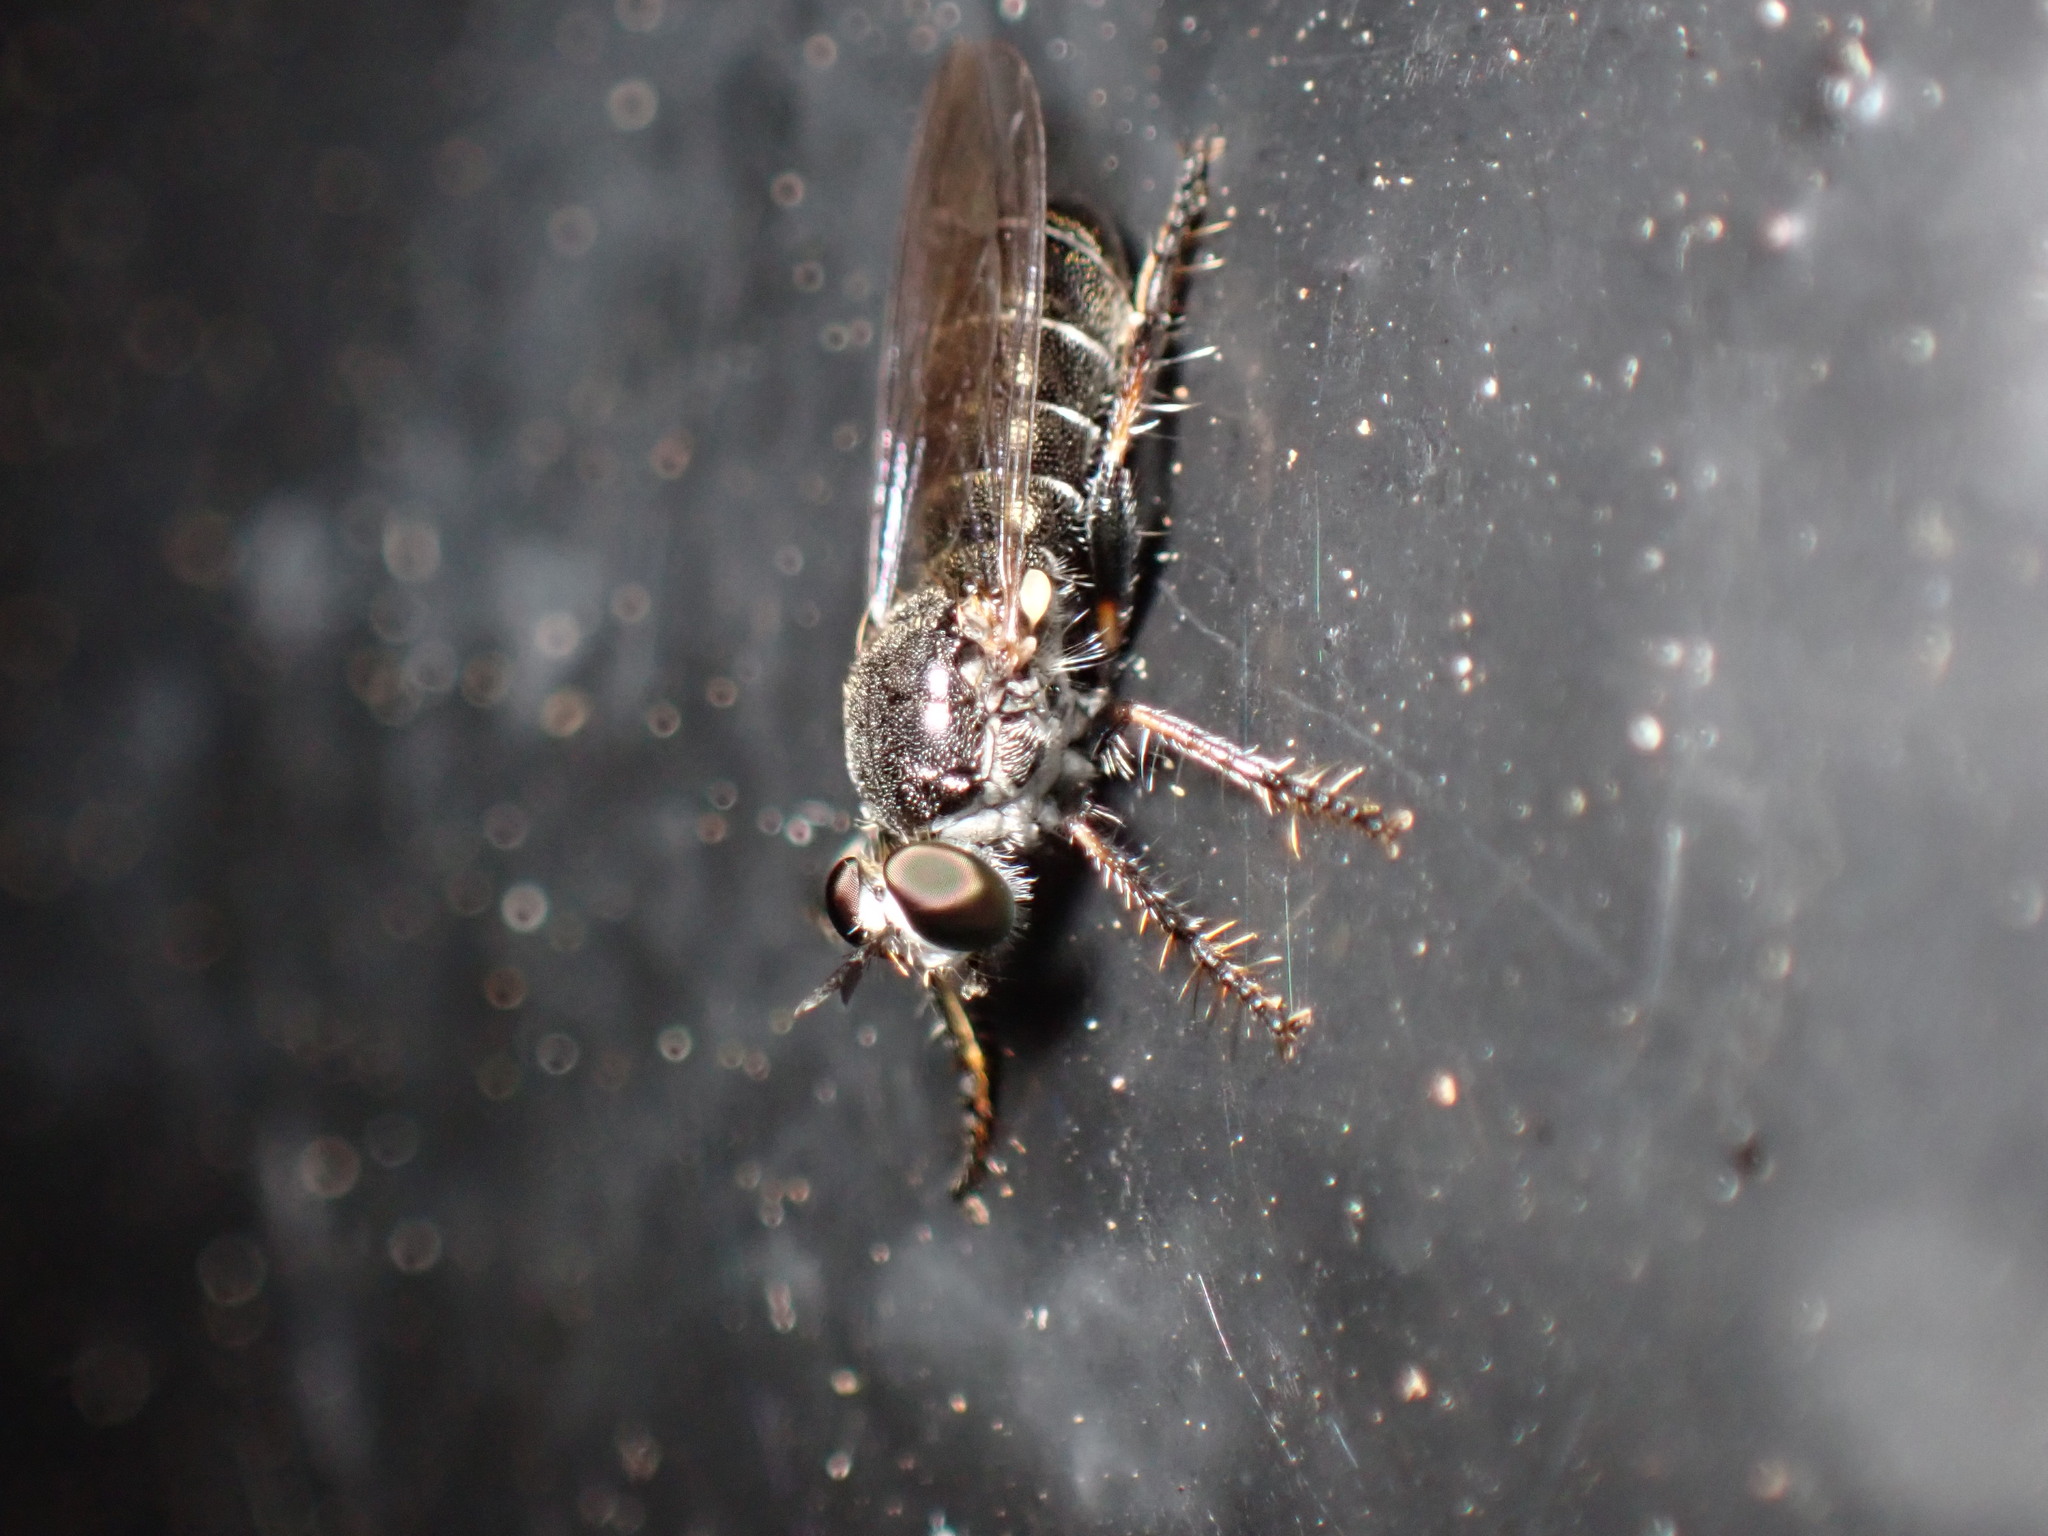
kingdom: Animalia
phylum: Arthropoda
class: Insecta
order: Diptera
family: Asilidae
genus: Atomosia
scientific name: Atomosia puella
